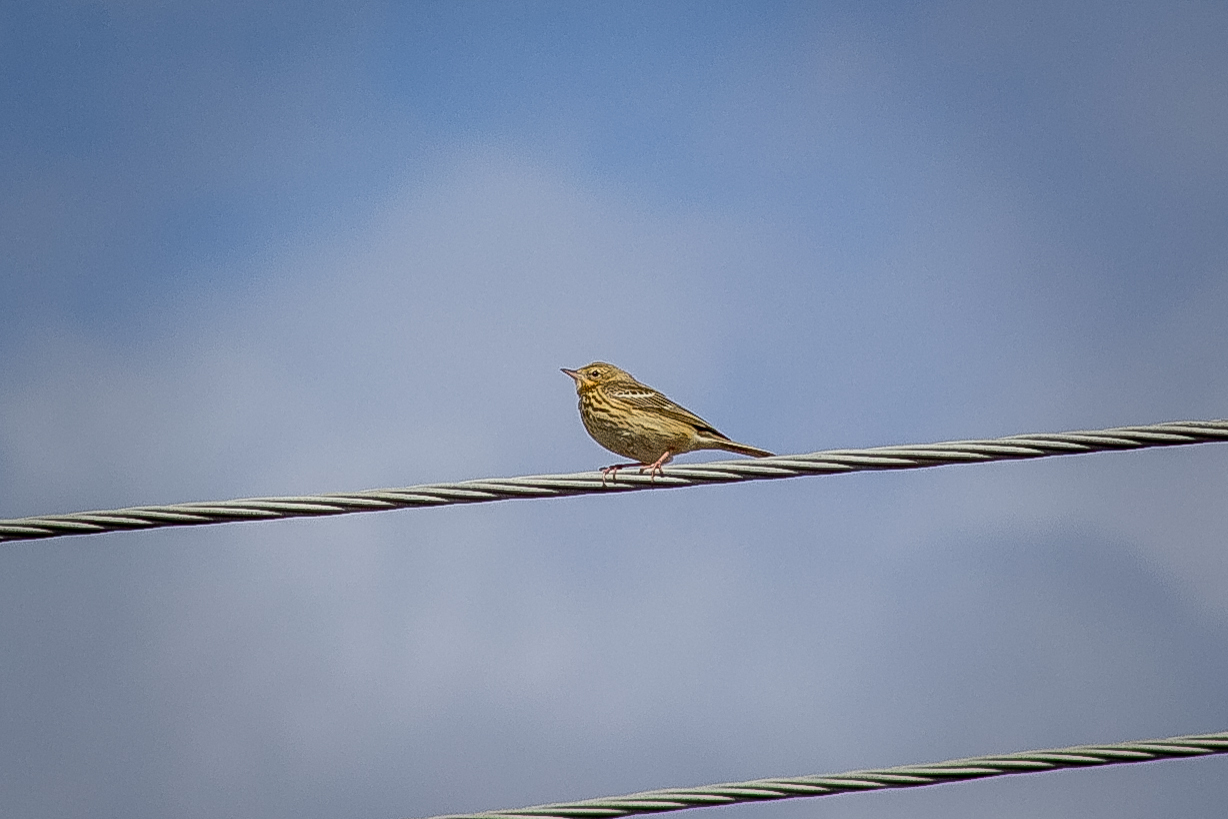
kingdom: Animalia
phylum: Chordata
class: Aves
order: Passeriformes
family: Motacillidae
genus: Anthus
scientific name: Anthus trivialis
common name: Tree pipit
